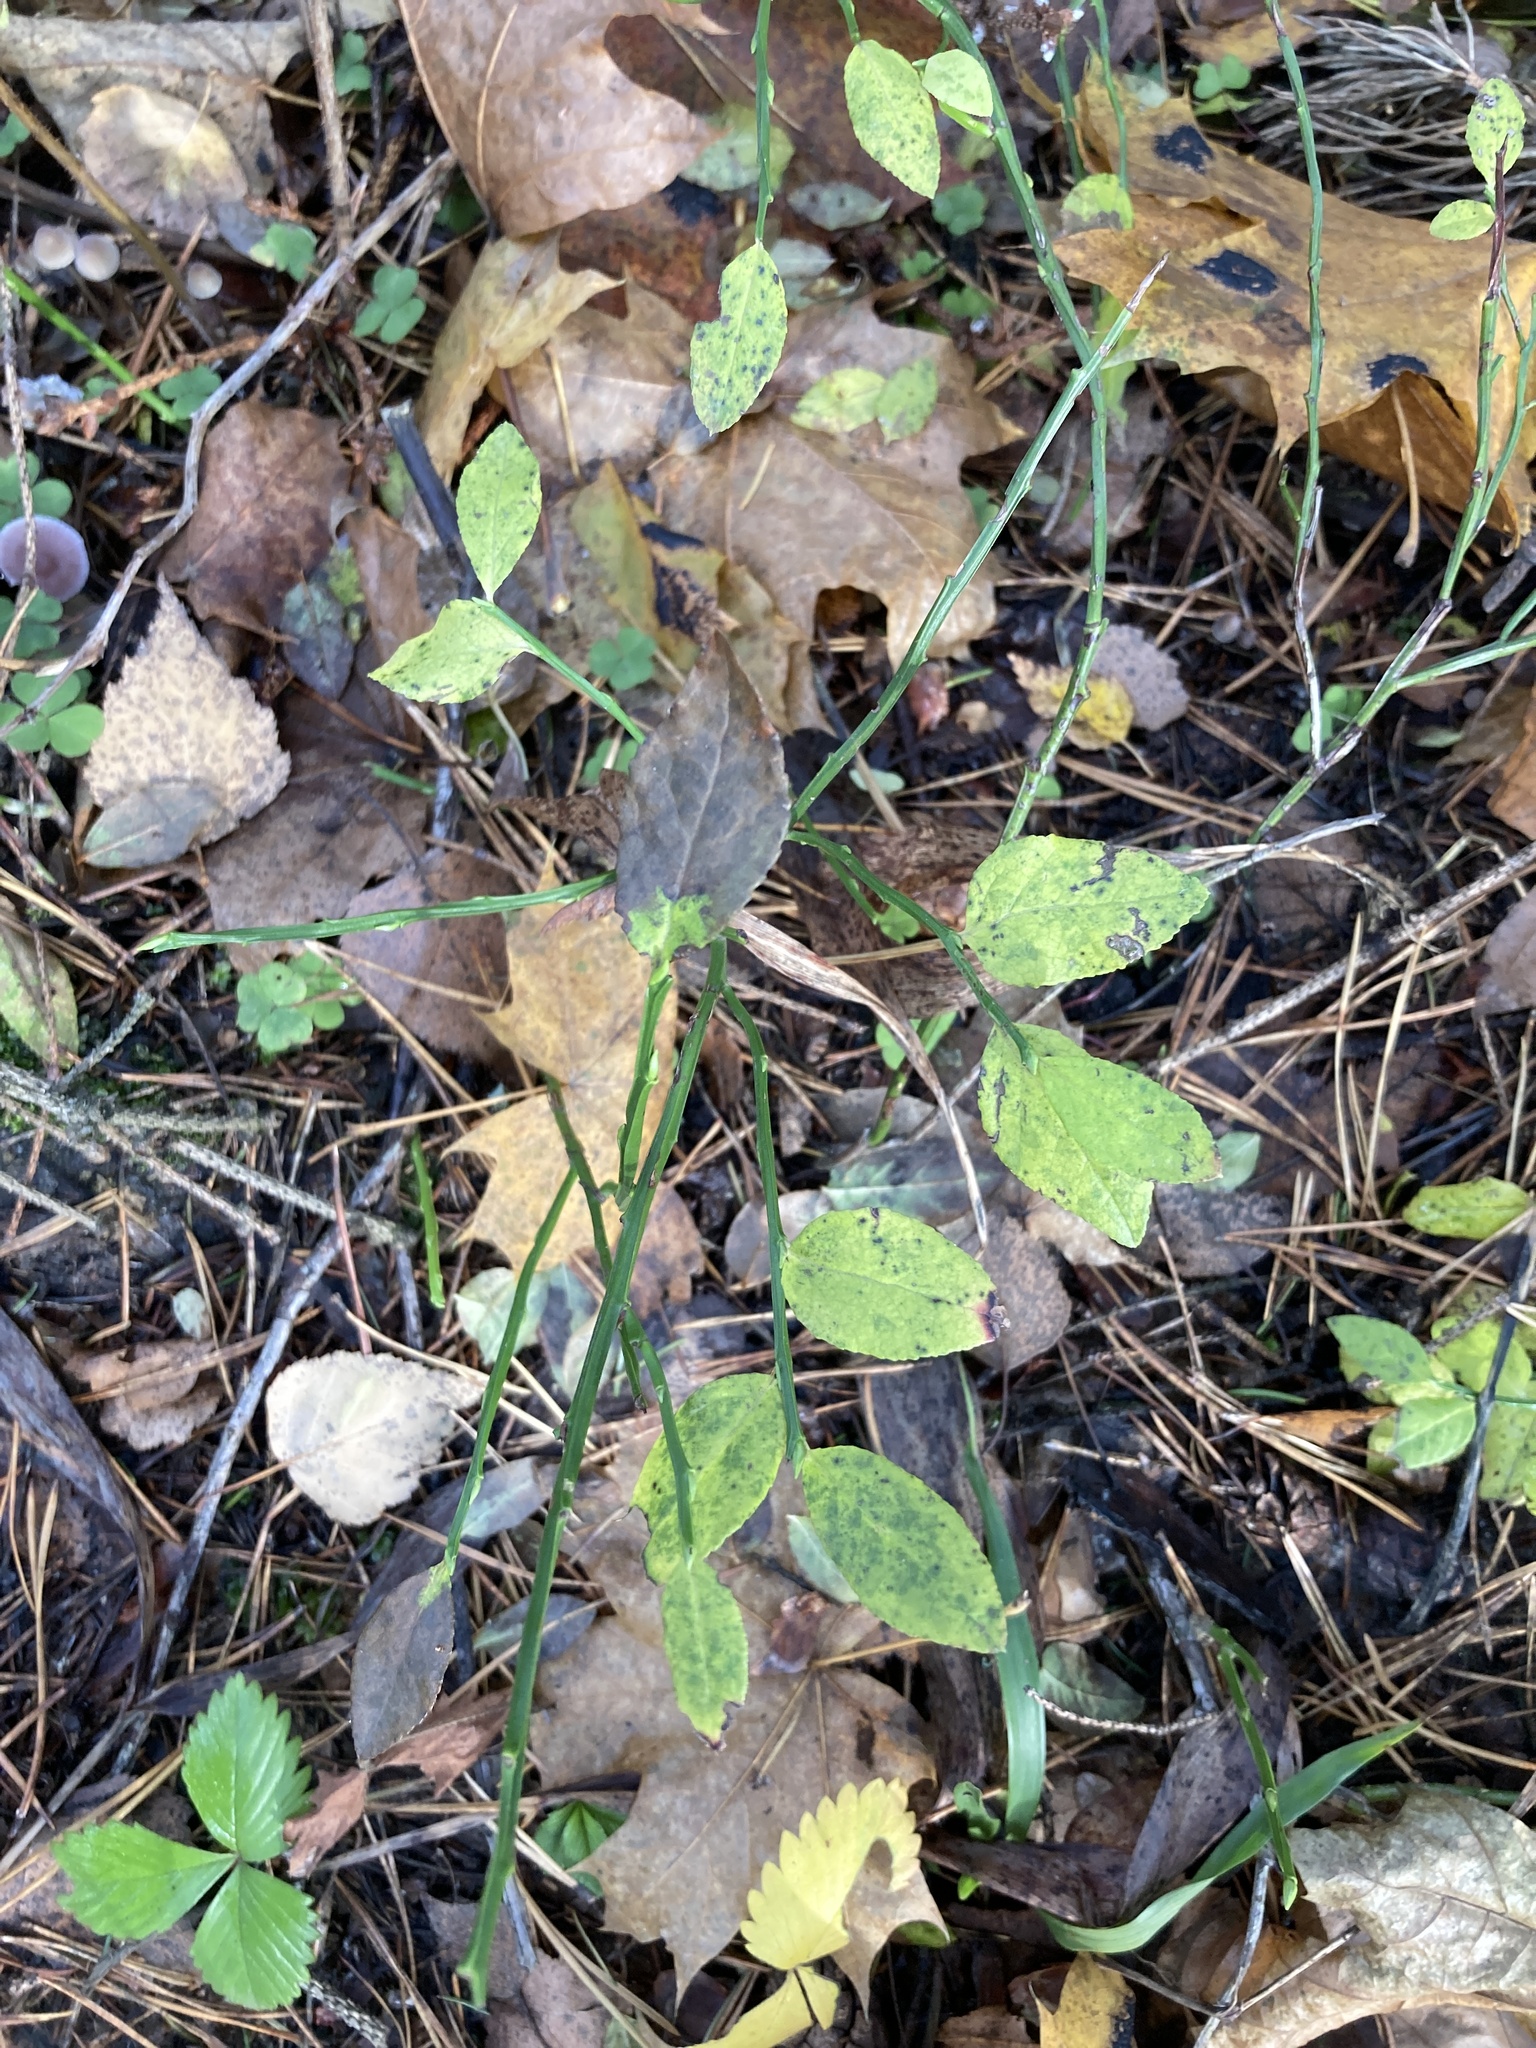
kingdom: Plantae
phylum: Tracheophyta
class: Magnoliopsida
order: Ericales
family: Ericaceae
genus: Vaccinium
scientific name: Vaccinium myrtillus
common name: Bilberry
